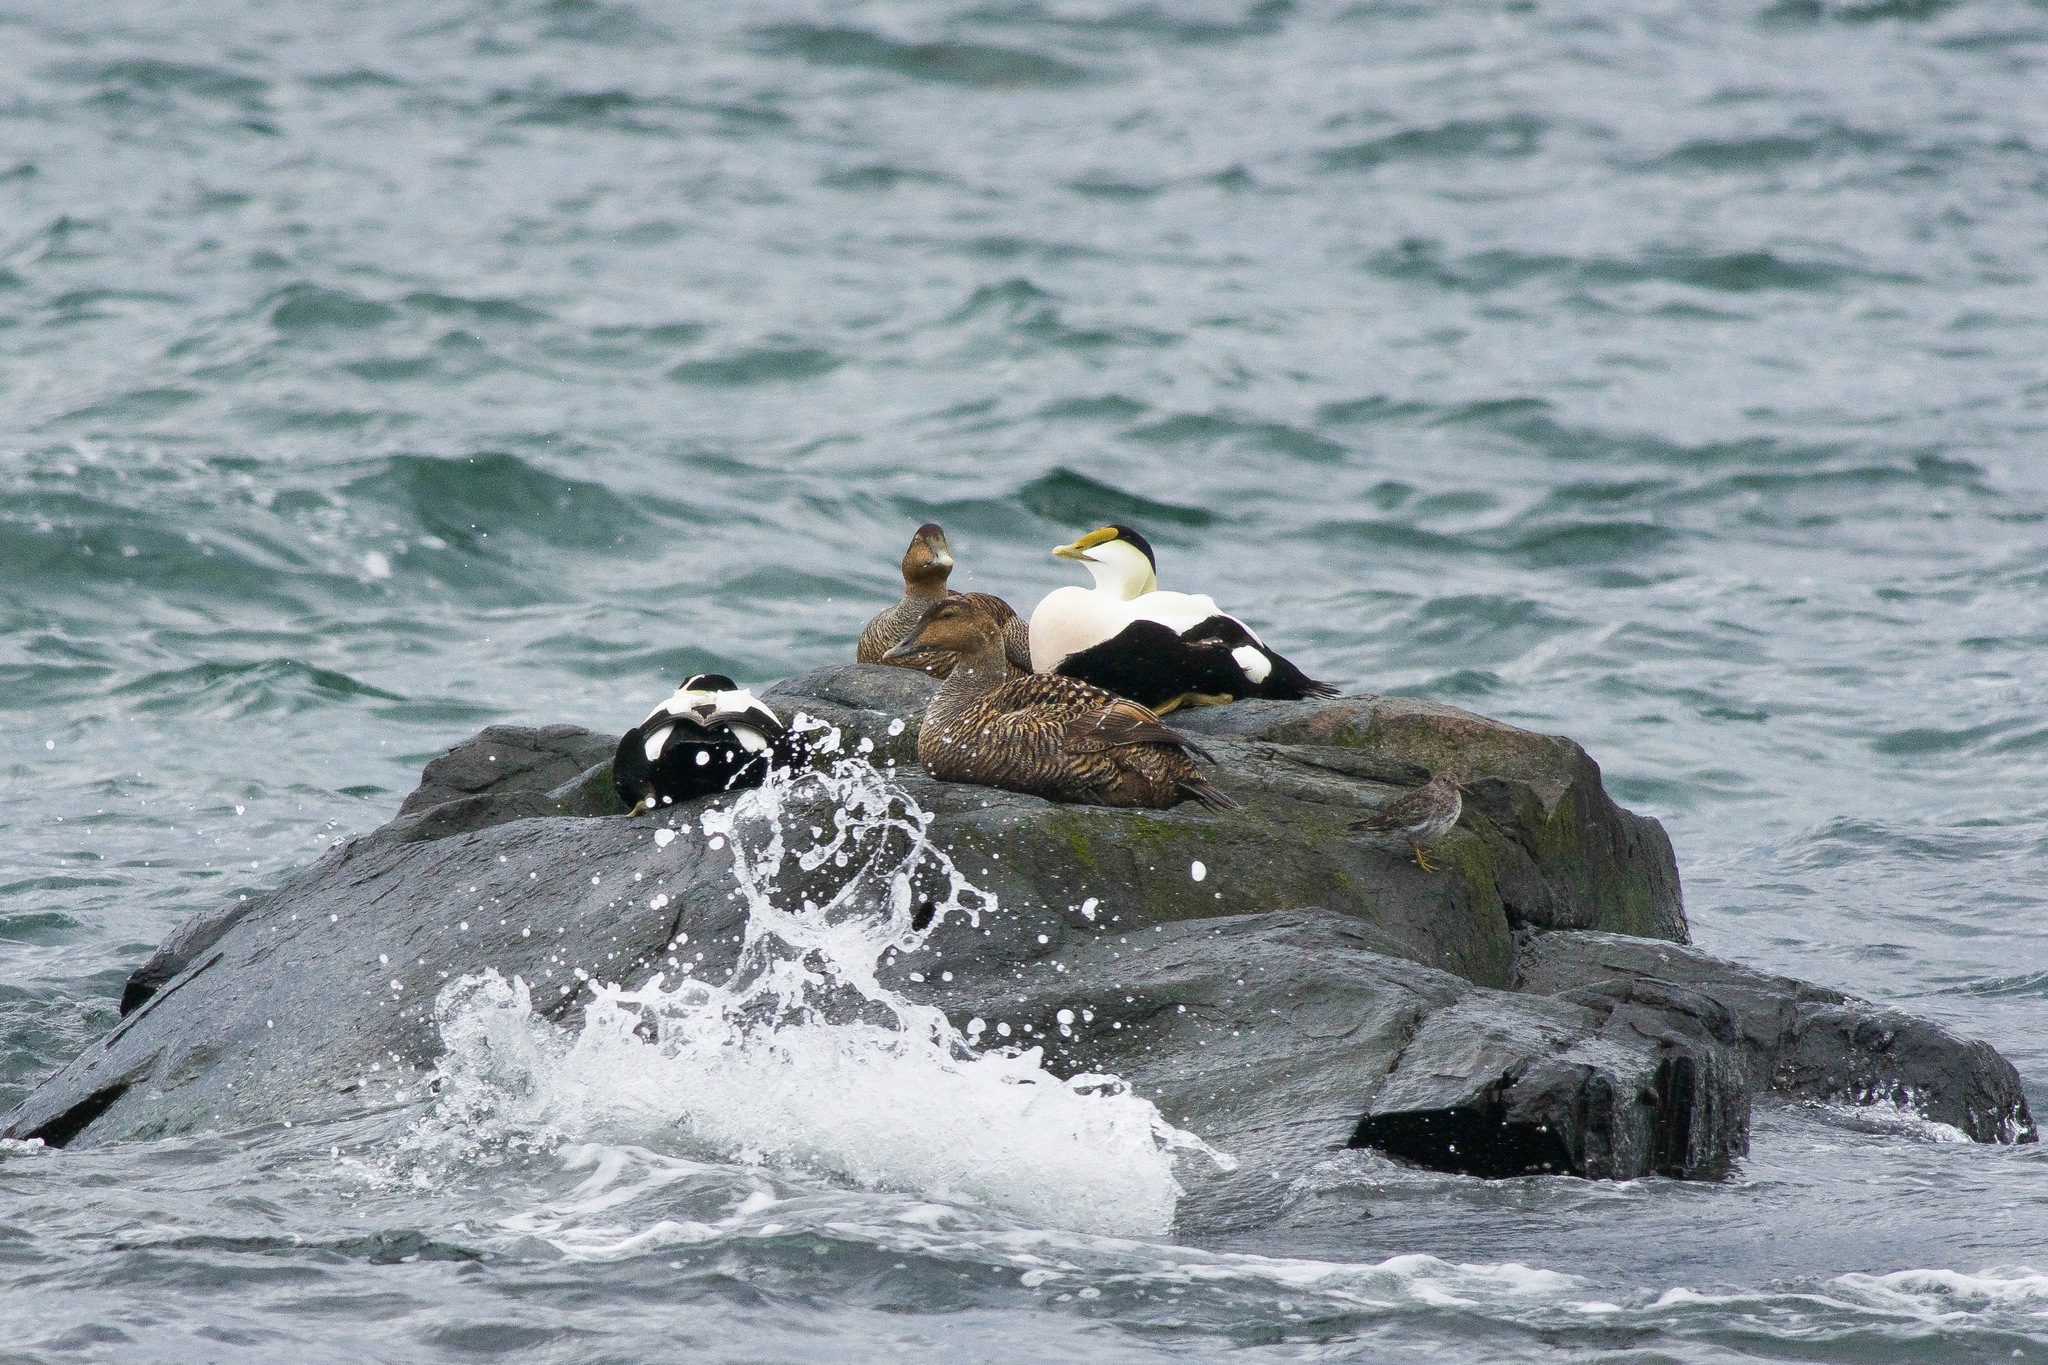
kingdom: Animalia
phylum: Chordata
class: Aves
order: Anseriformes
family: Anatidae
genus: Somateria
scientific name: Somateria mollissima
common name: Common eider
